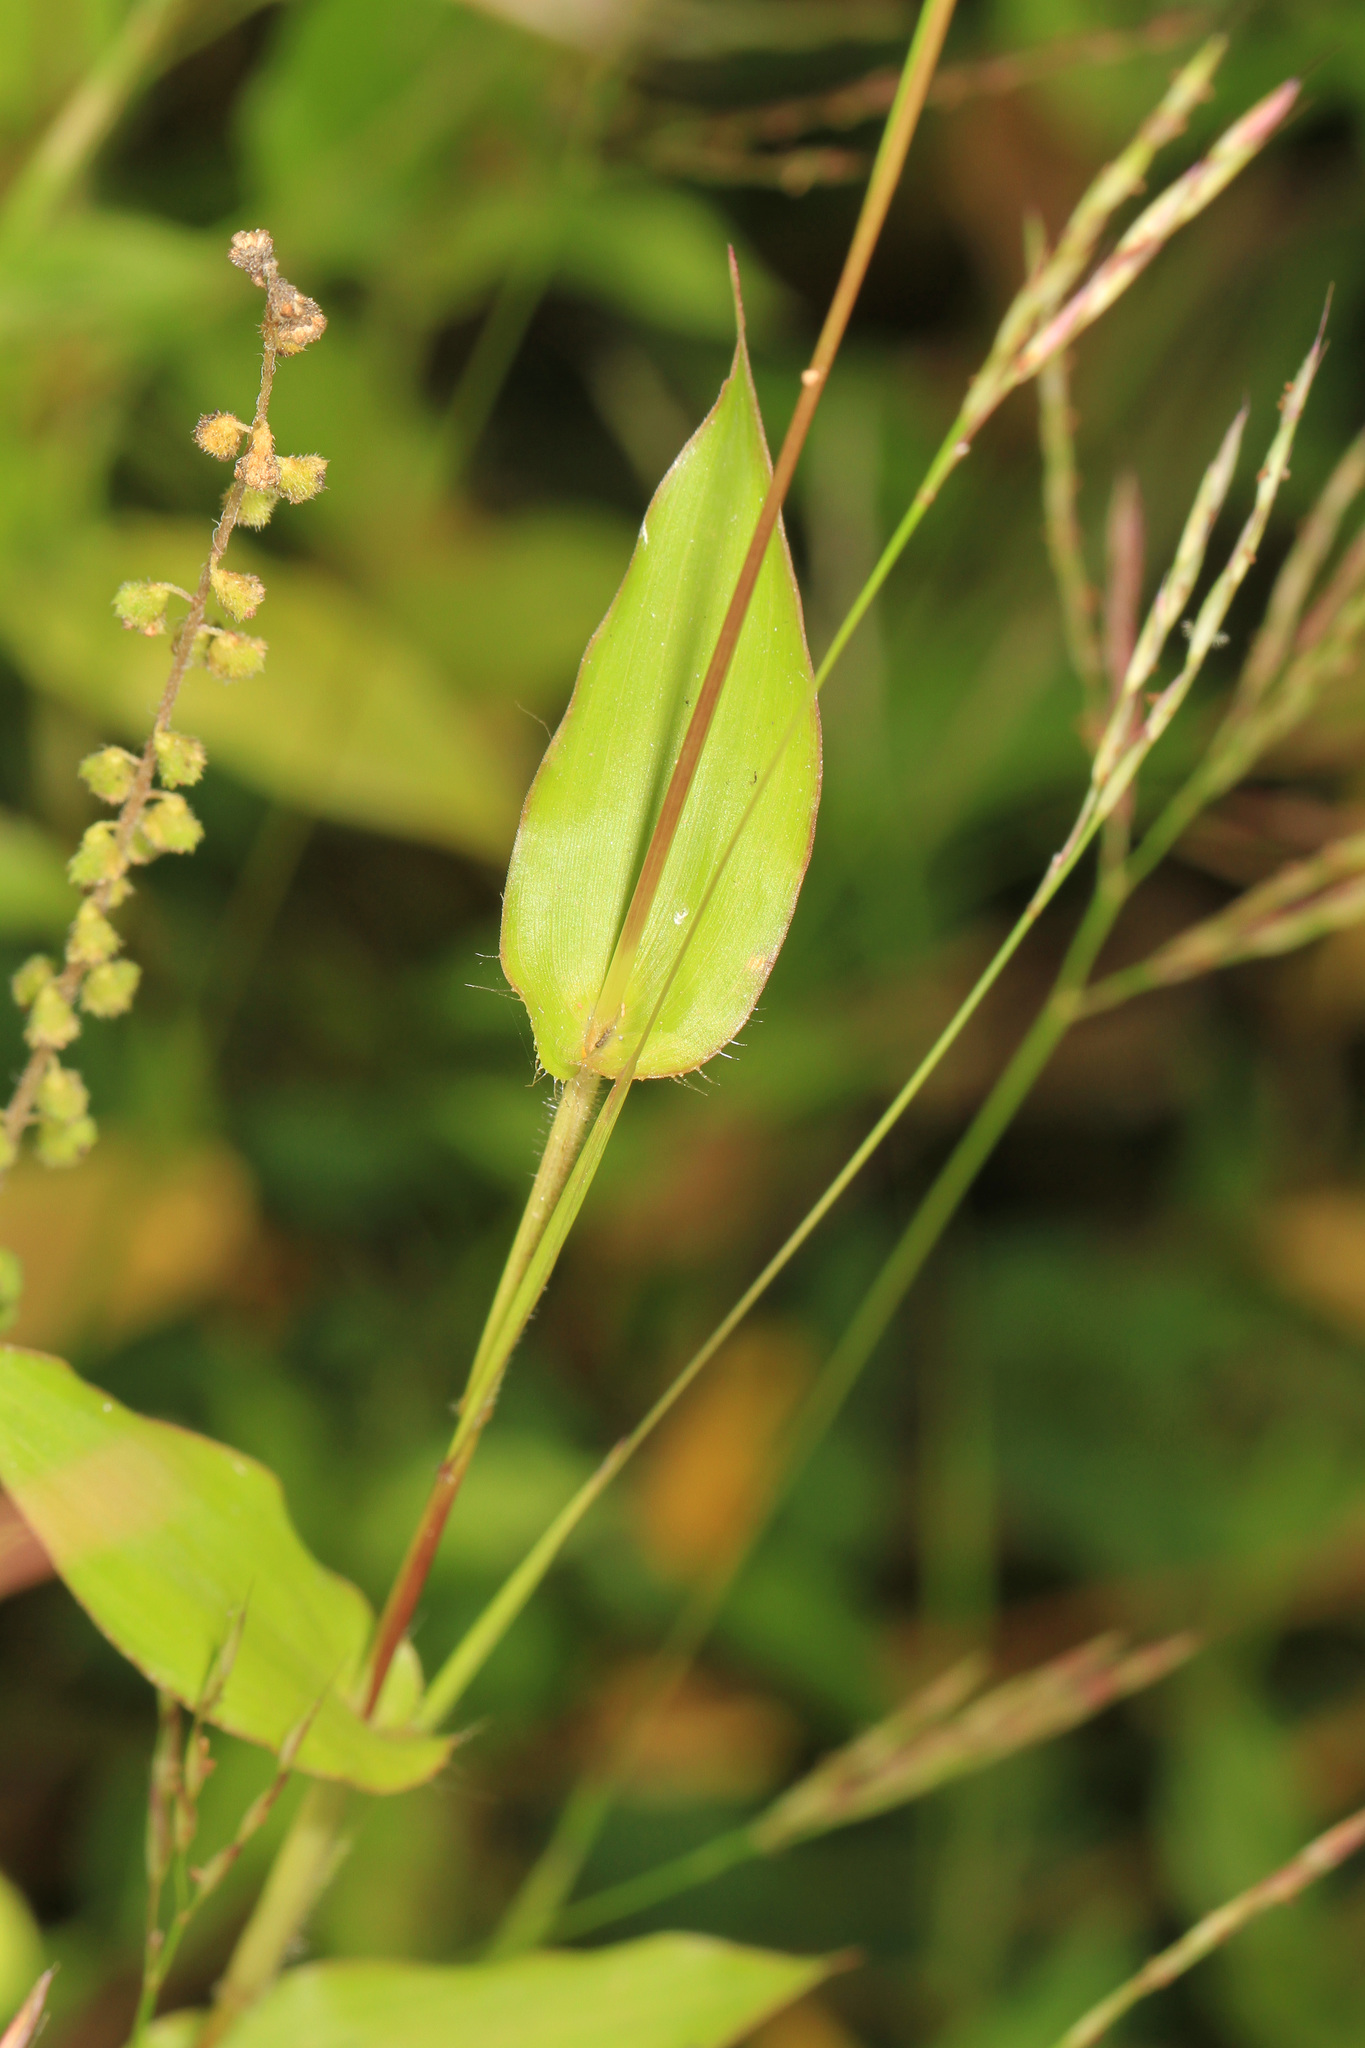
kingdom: Plantae
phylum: Tracheophyta
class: Liliopsida
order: Poales
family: Poaceae
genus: Arthraxon
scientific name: Arthraxon hispidus
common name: Small carpgrass
